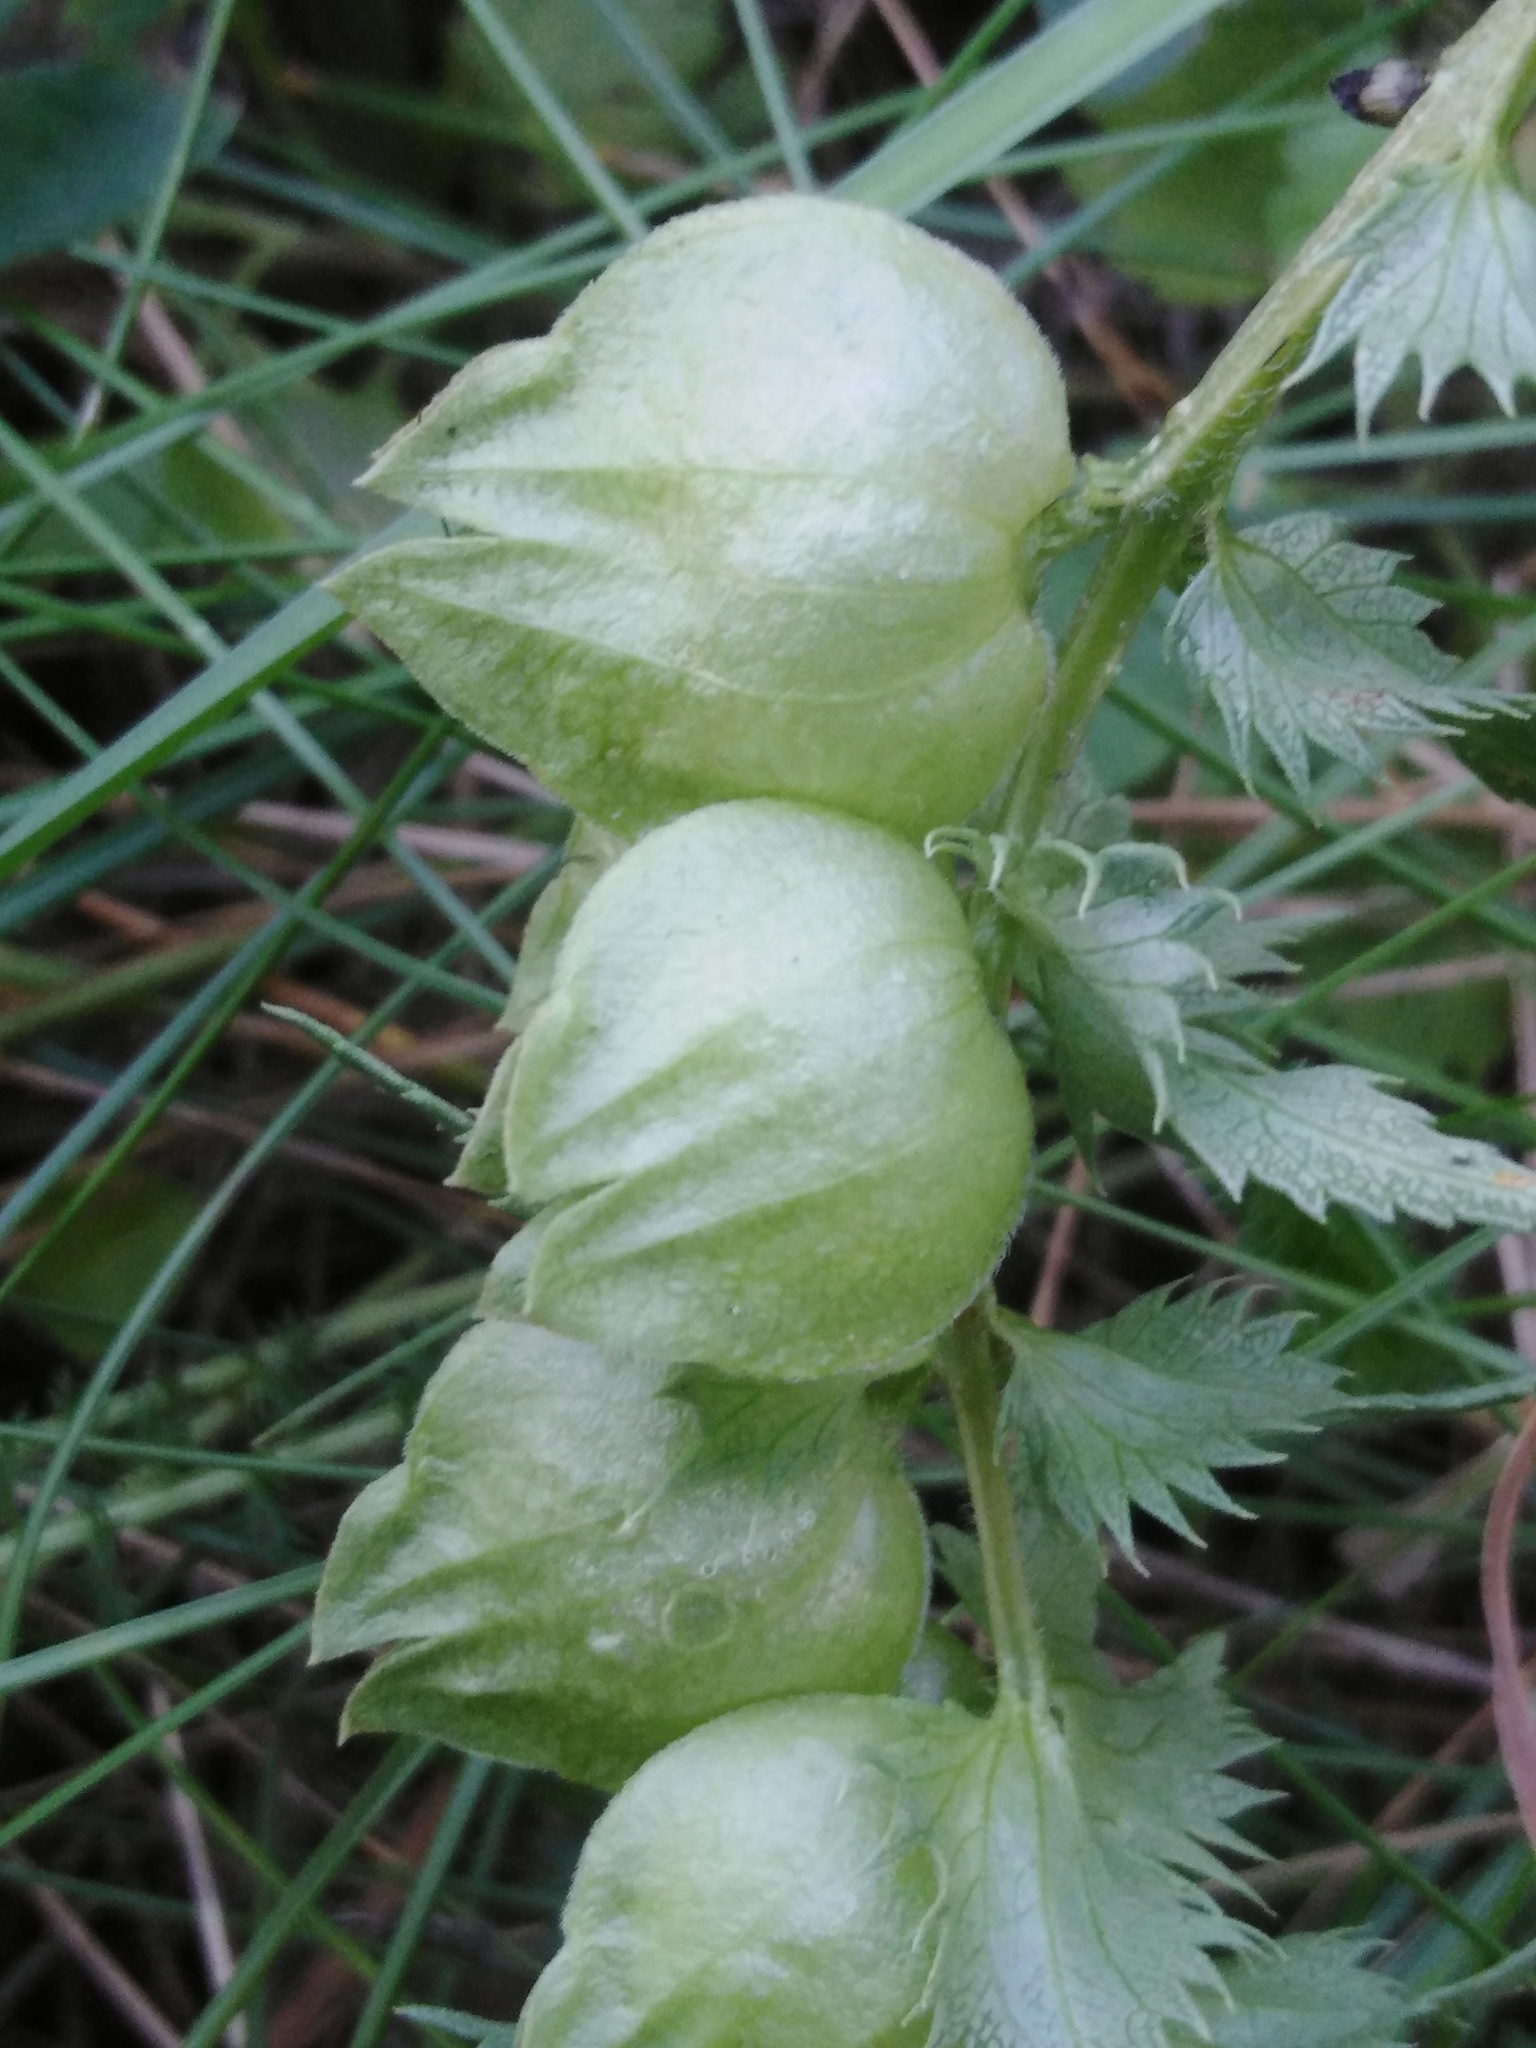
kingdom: Plantae
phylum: Tracheophyta
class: Magnoliopsida
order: Lamiales
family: Orobanchaceae
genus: Rhinanthus
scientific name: Rhinanthus serotinus
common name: Late-flowering yellow rattle
